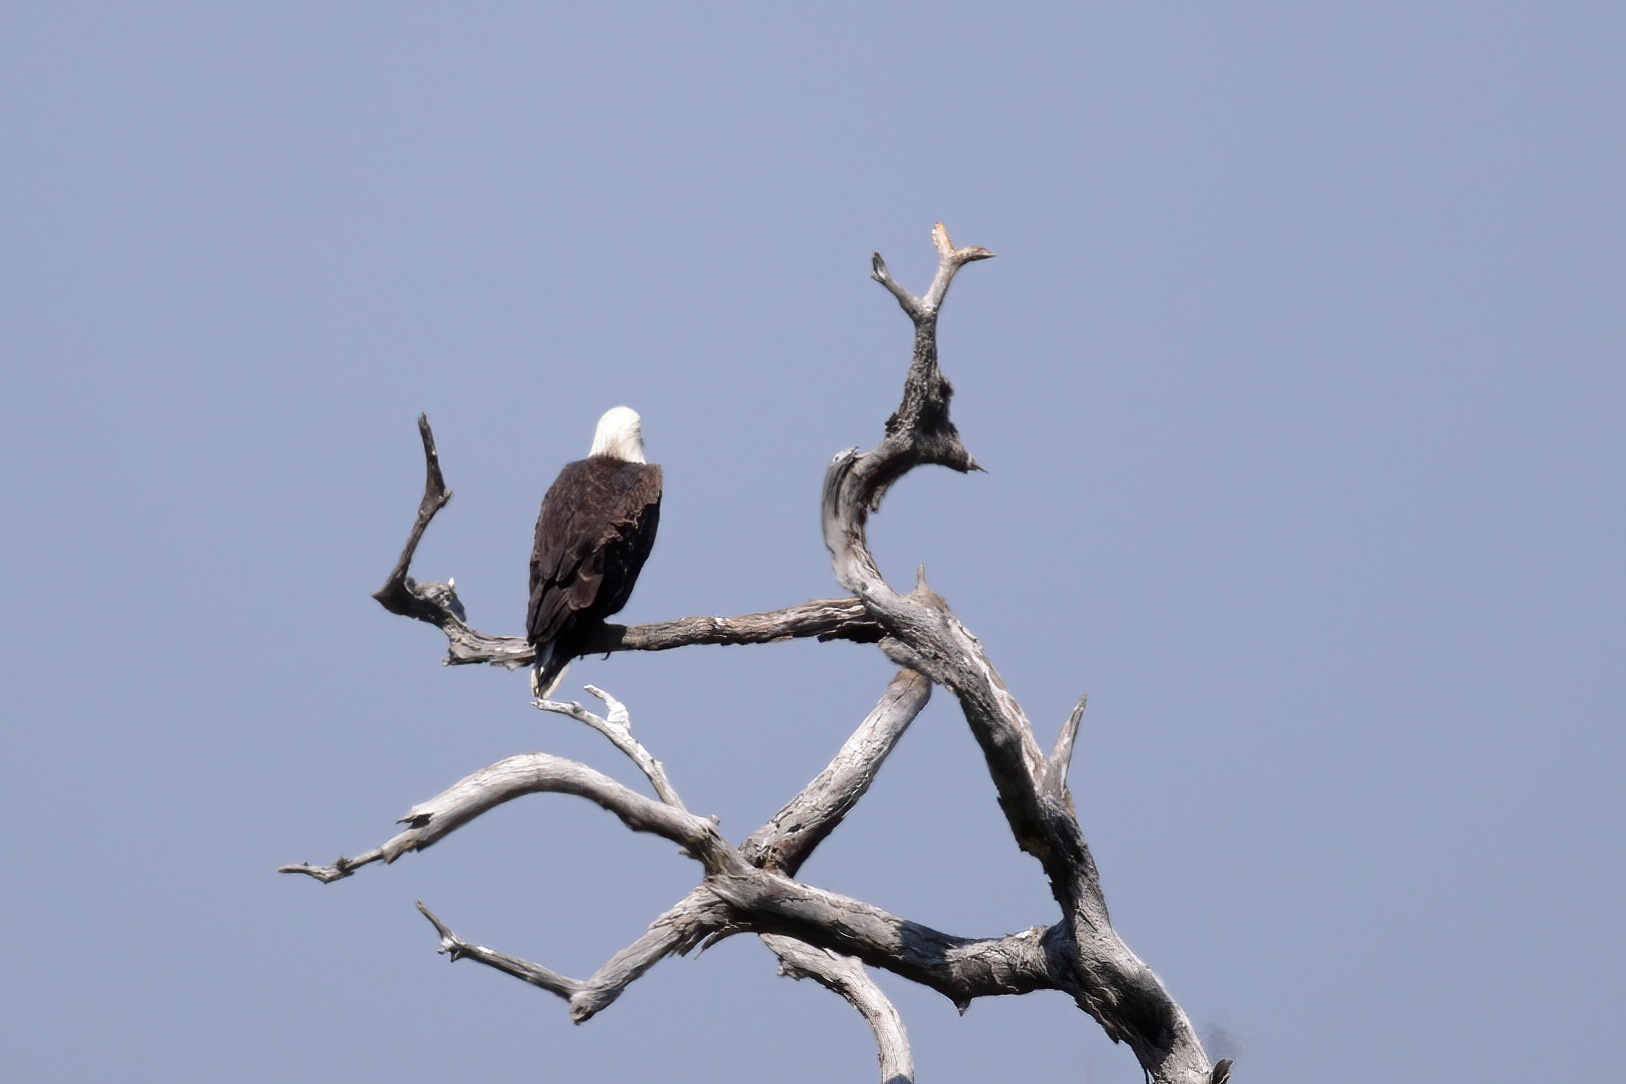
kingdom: Animalia
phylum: Chordata
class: Aves
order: Accipitriformes
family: Accipitridae
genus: Haliaeetus
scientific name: Haliaeetus leucocephalus
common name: Bald eagle
